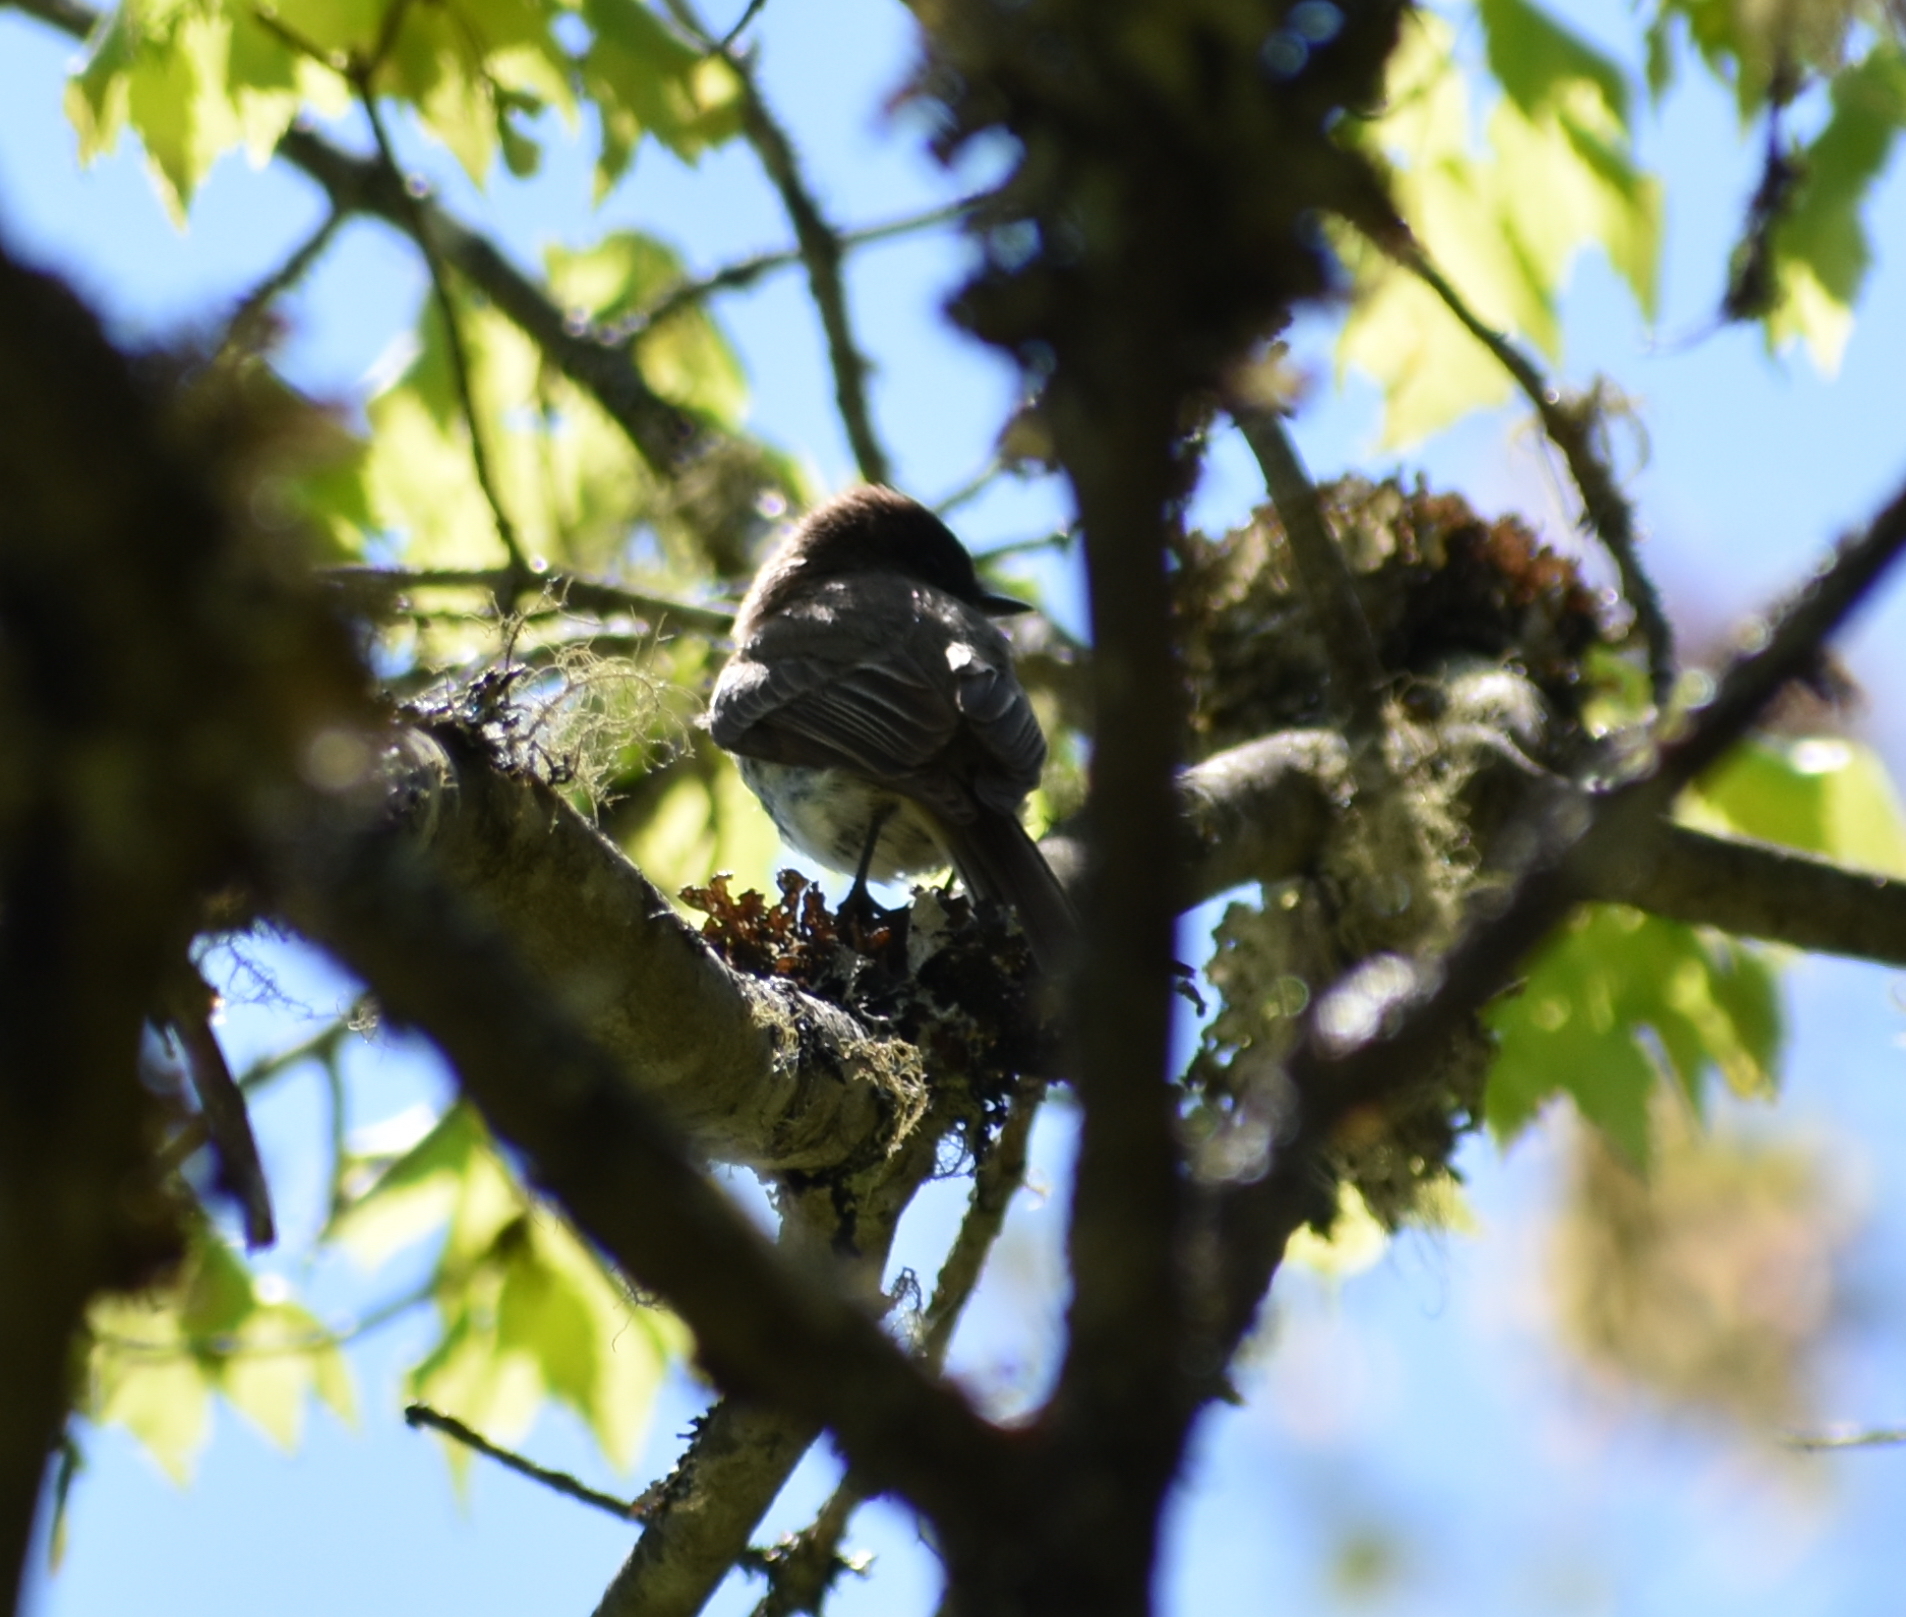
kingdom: Animalia
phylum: Chordata
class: Aves
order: Passeriformes
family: Tyrannidae
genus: Sayornis
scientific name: Sayornis phoebe
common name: Eastern phoebe
